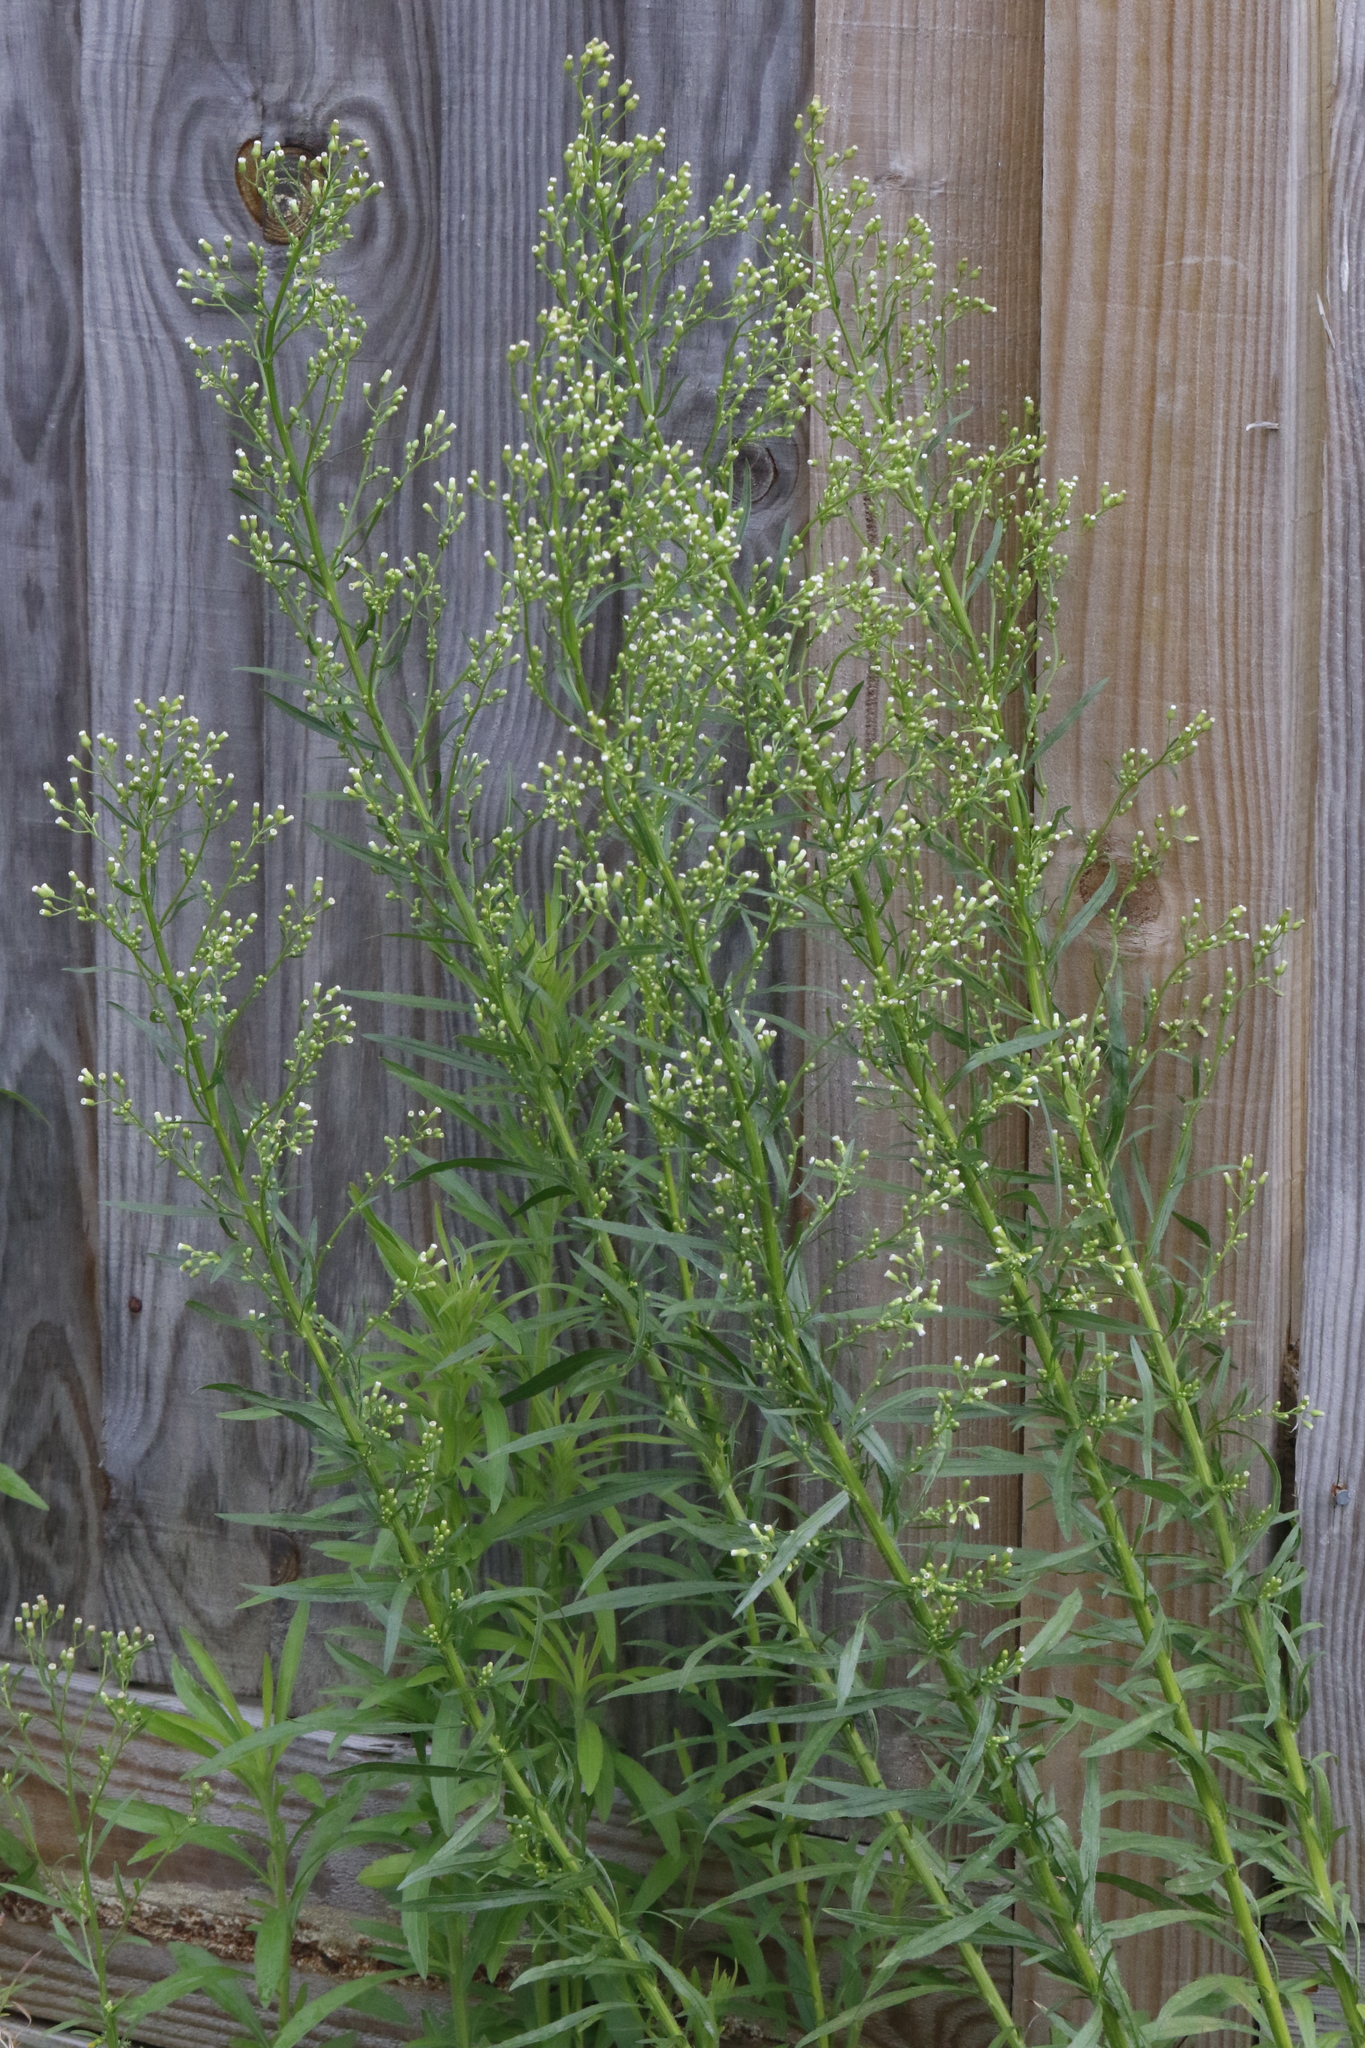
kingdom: Plantae
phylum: Tracheophyta
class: Magnoliopsida
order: Asterales
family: Asteraceae
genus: Erigeron
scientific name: Erigeron canadensis
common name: Canadian fleabane
